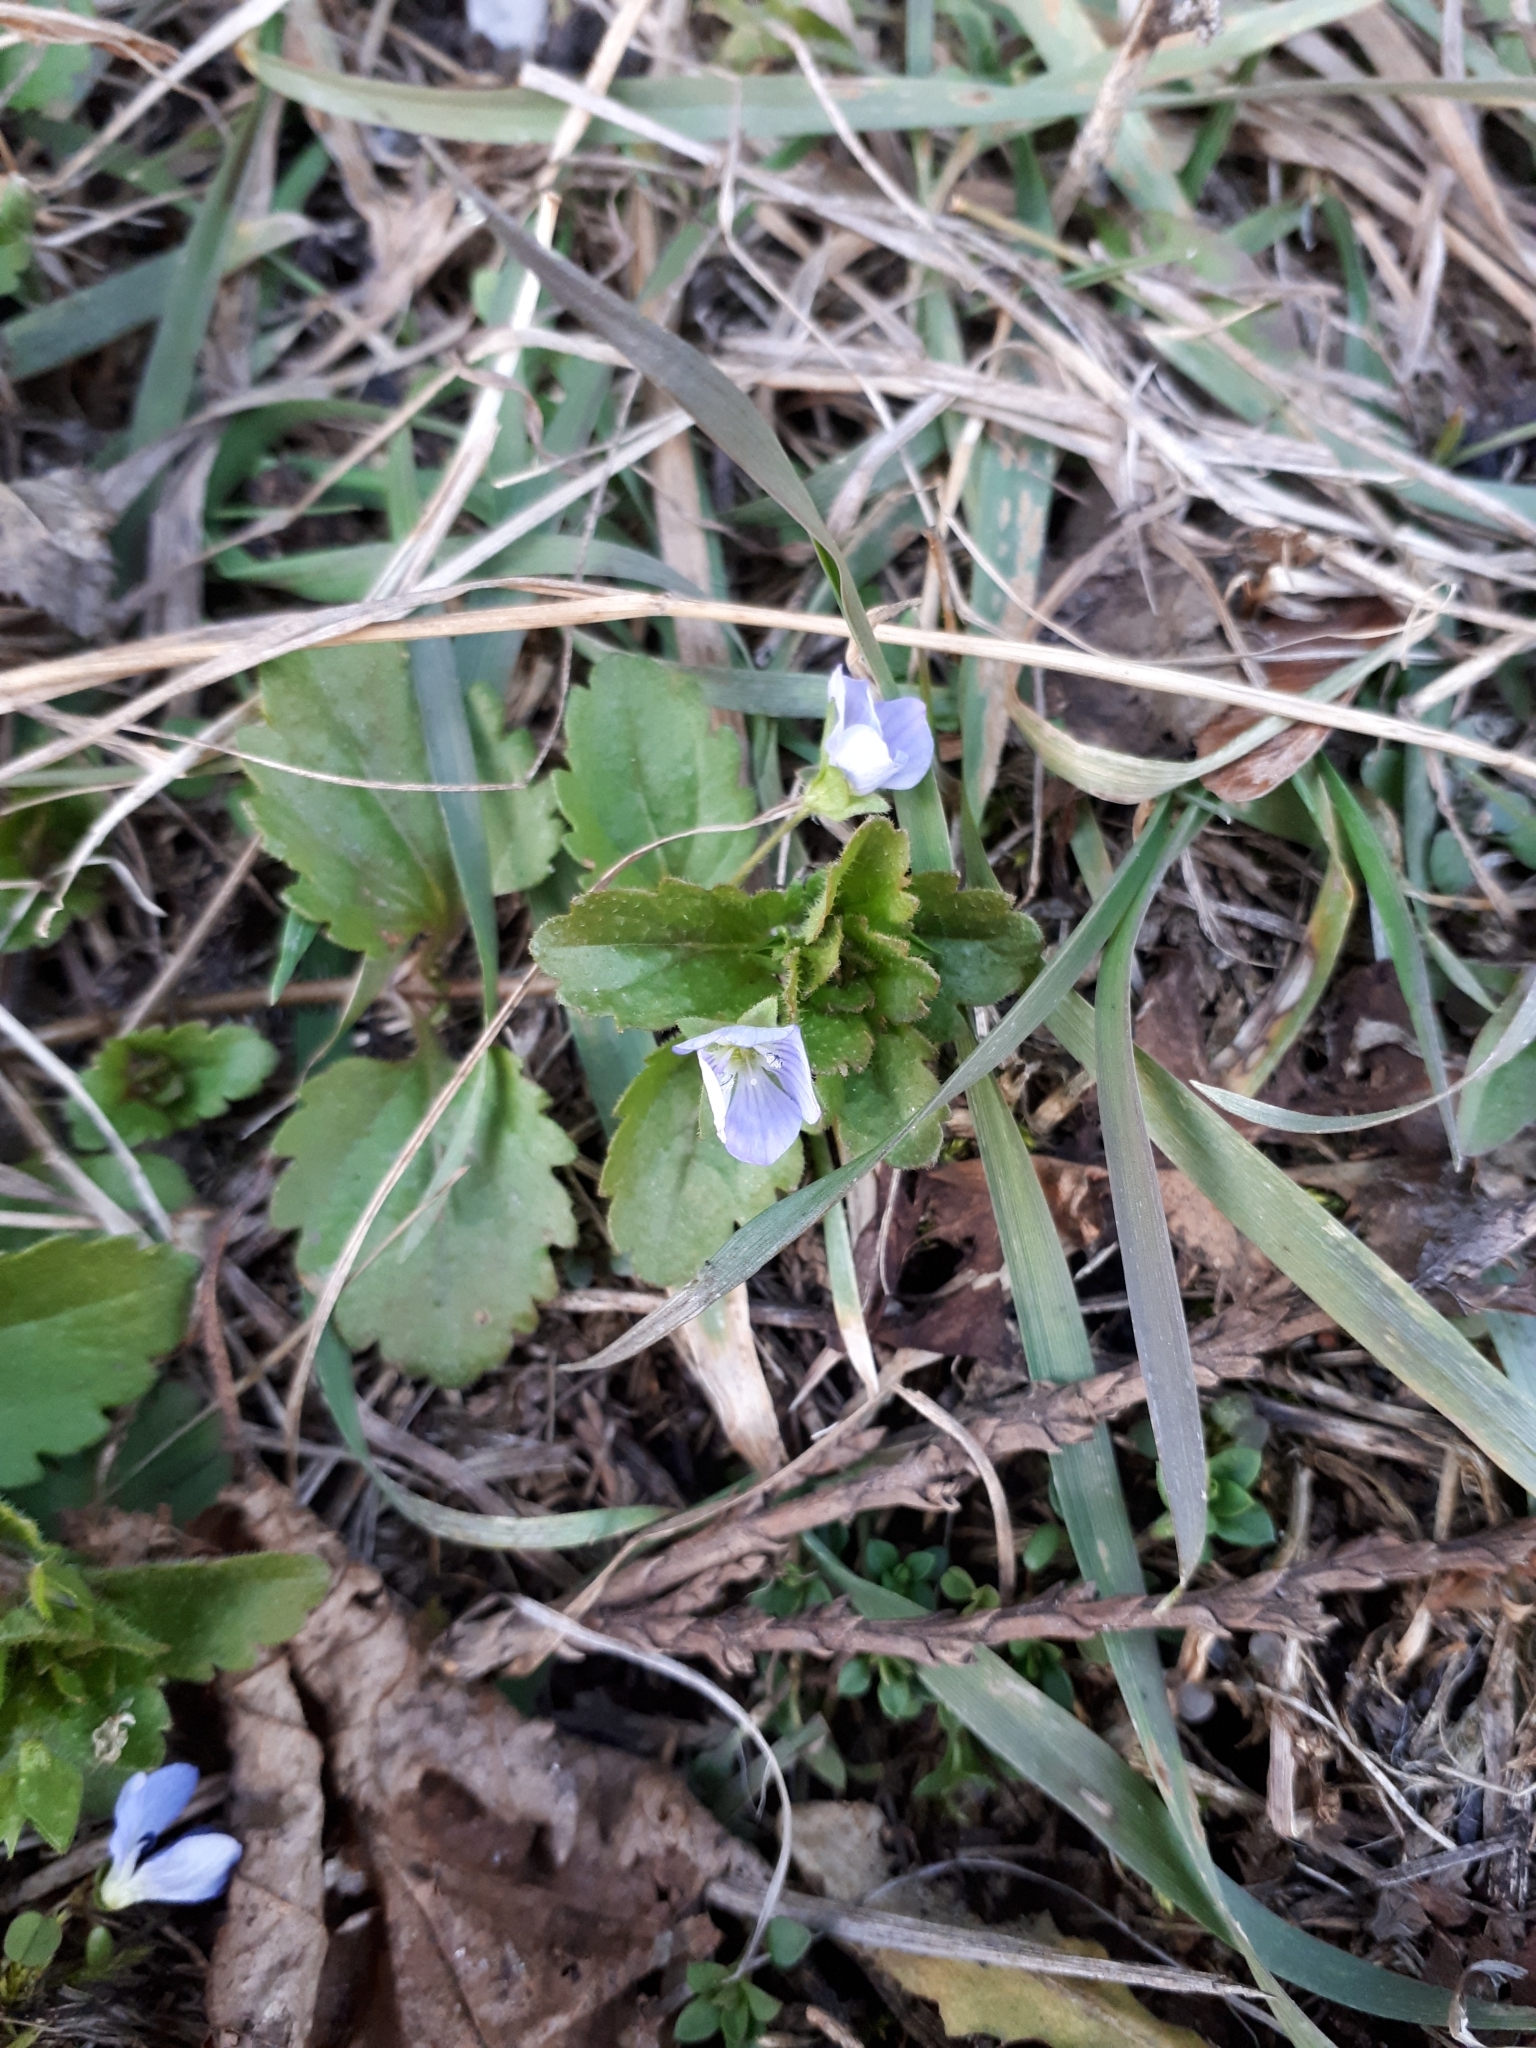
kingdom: Plantae
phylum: Tracheophyta
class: Magnoliopsida
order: Lamiales
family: Plantaginaceae
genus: Veronica
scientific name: Veronica persica
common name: Common field-speedwell
